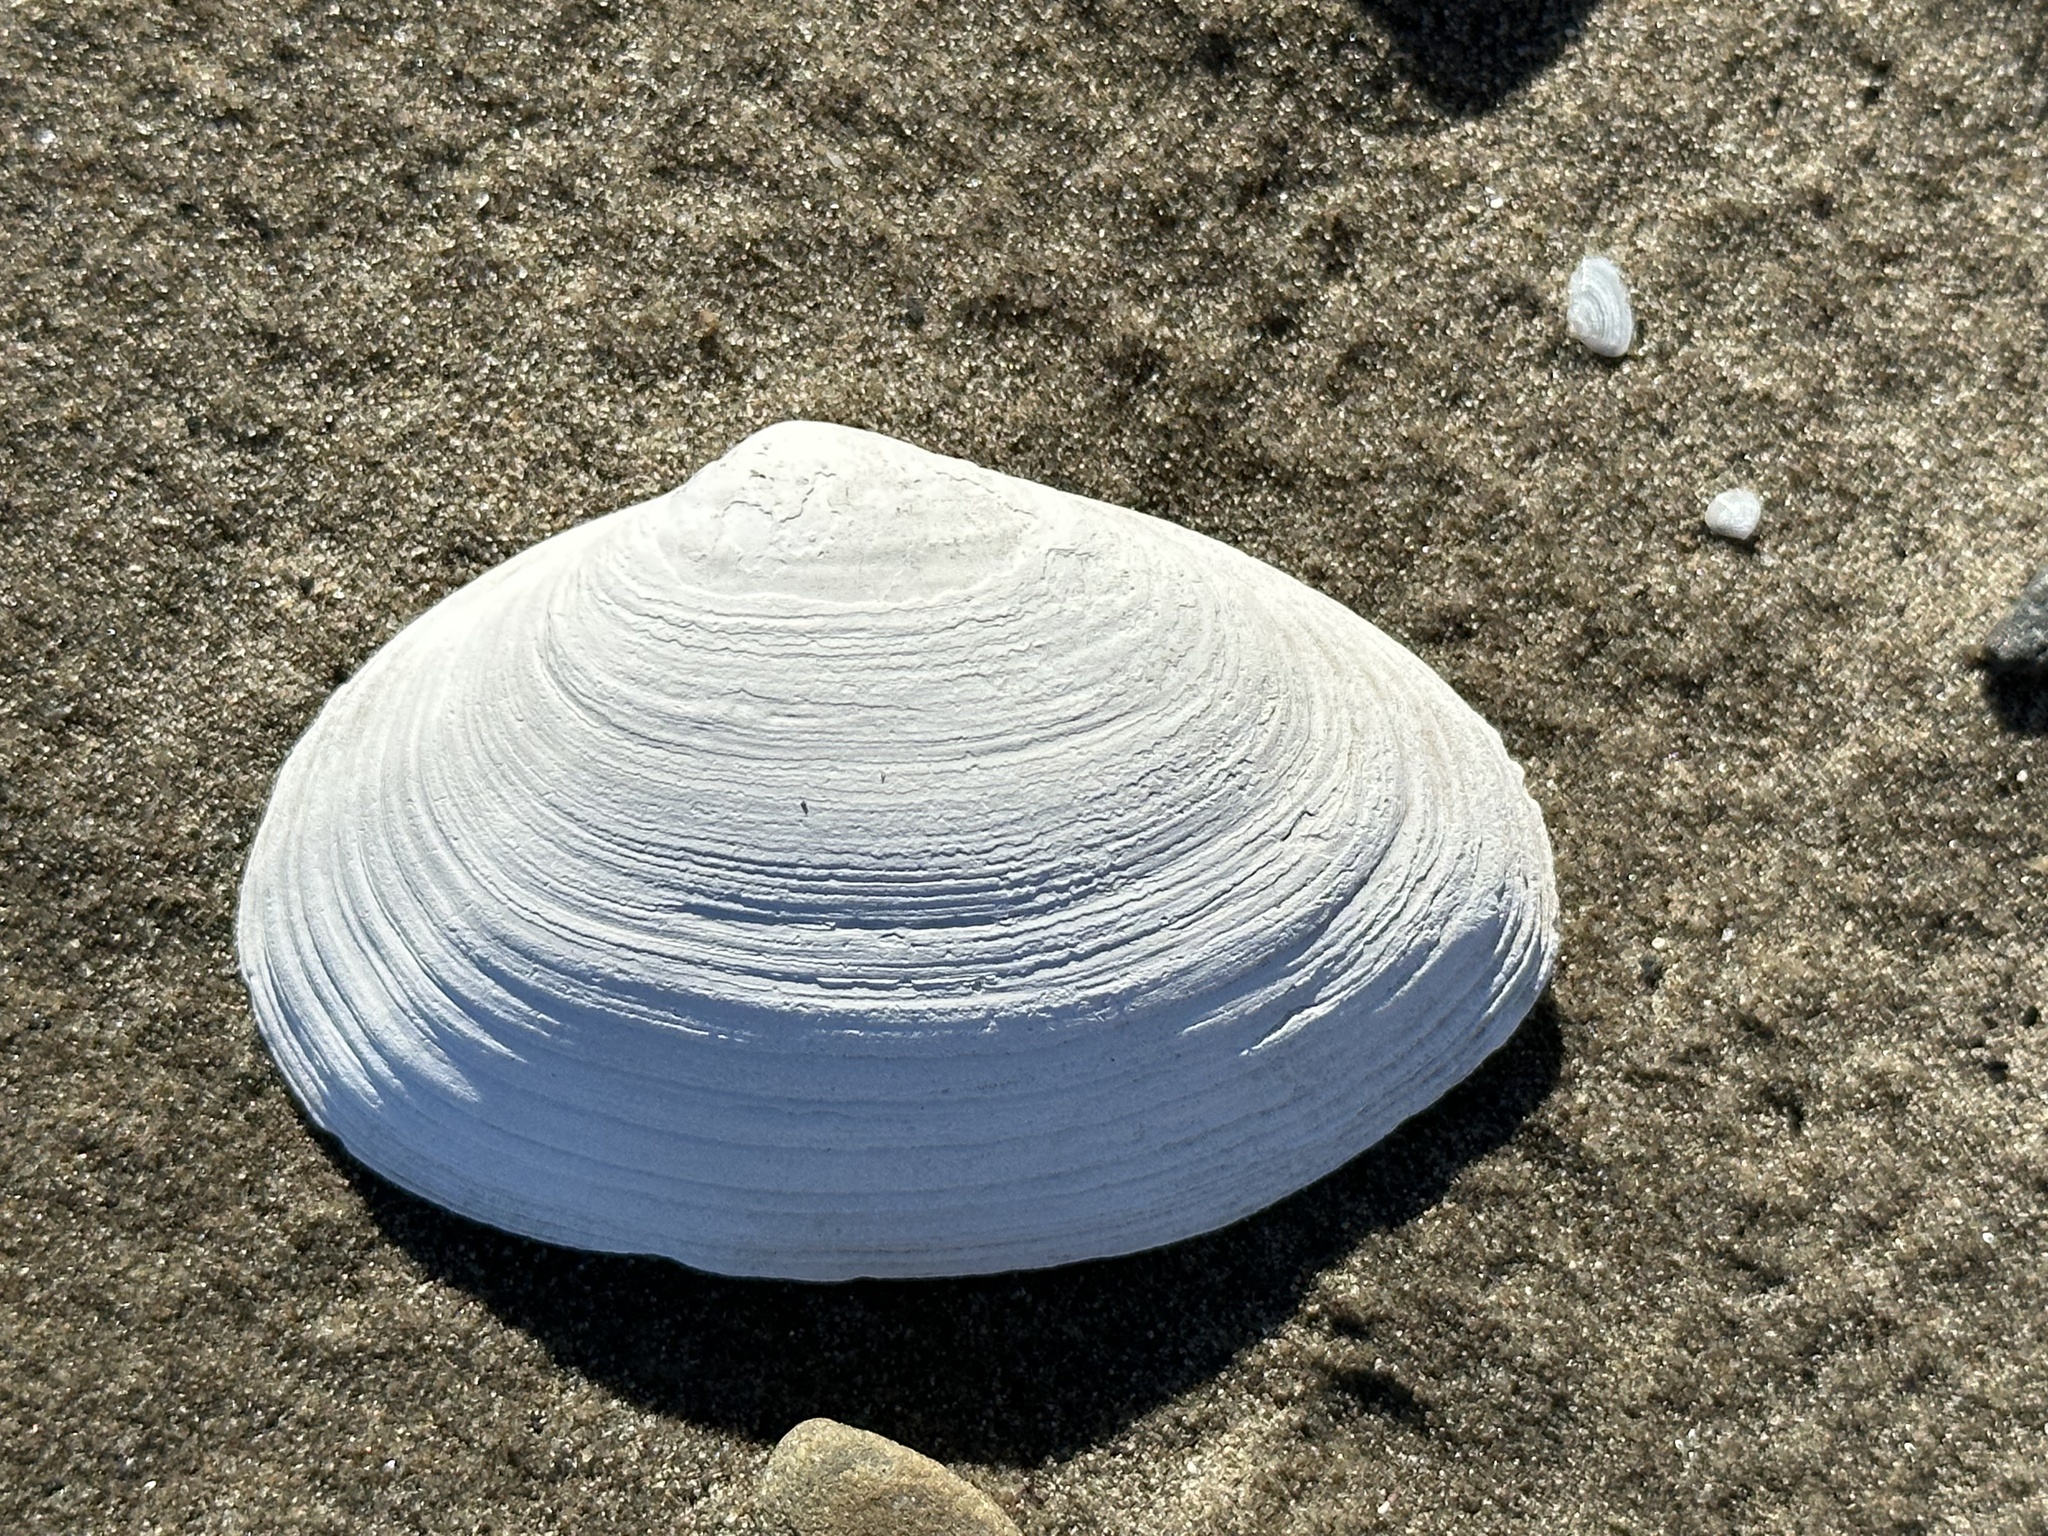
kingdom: Animalia
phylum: Mollusca
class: Bivalvia
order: Myida
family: Myidae
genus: Mya
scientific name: Mya arenaria
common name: Soft-shelled clam
